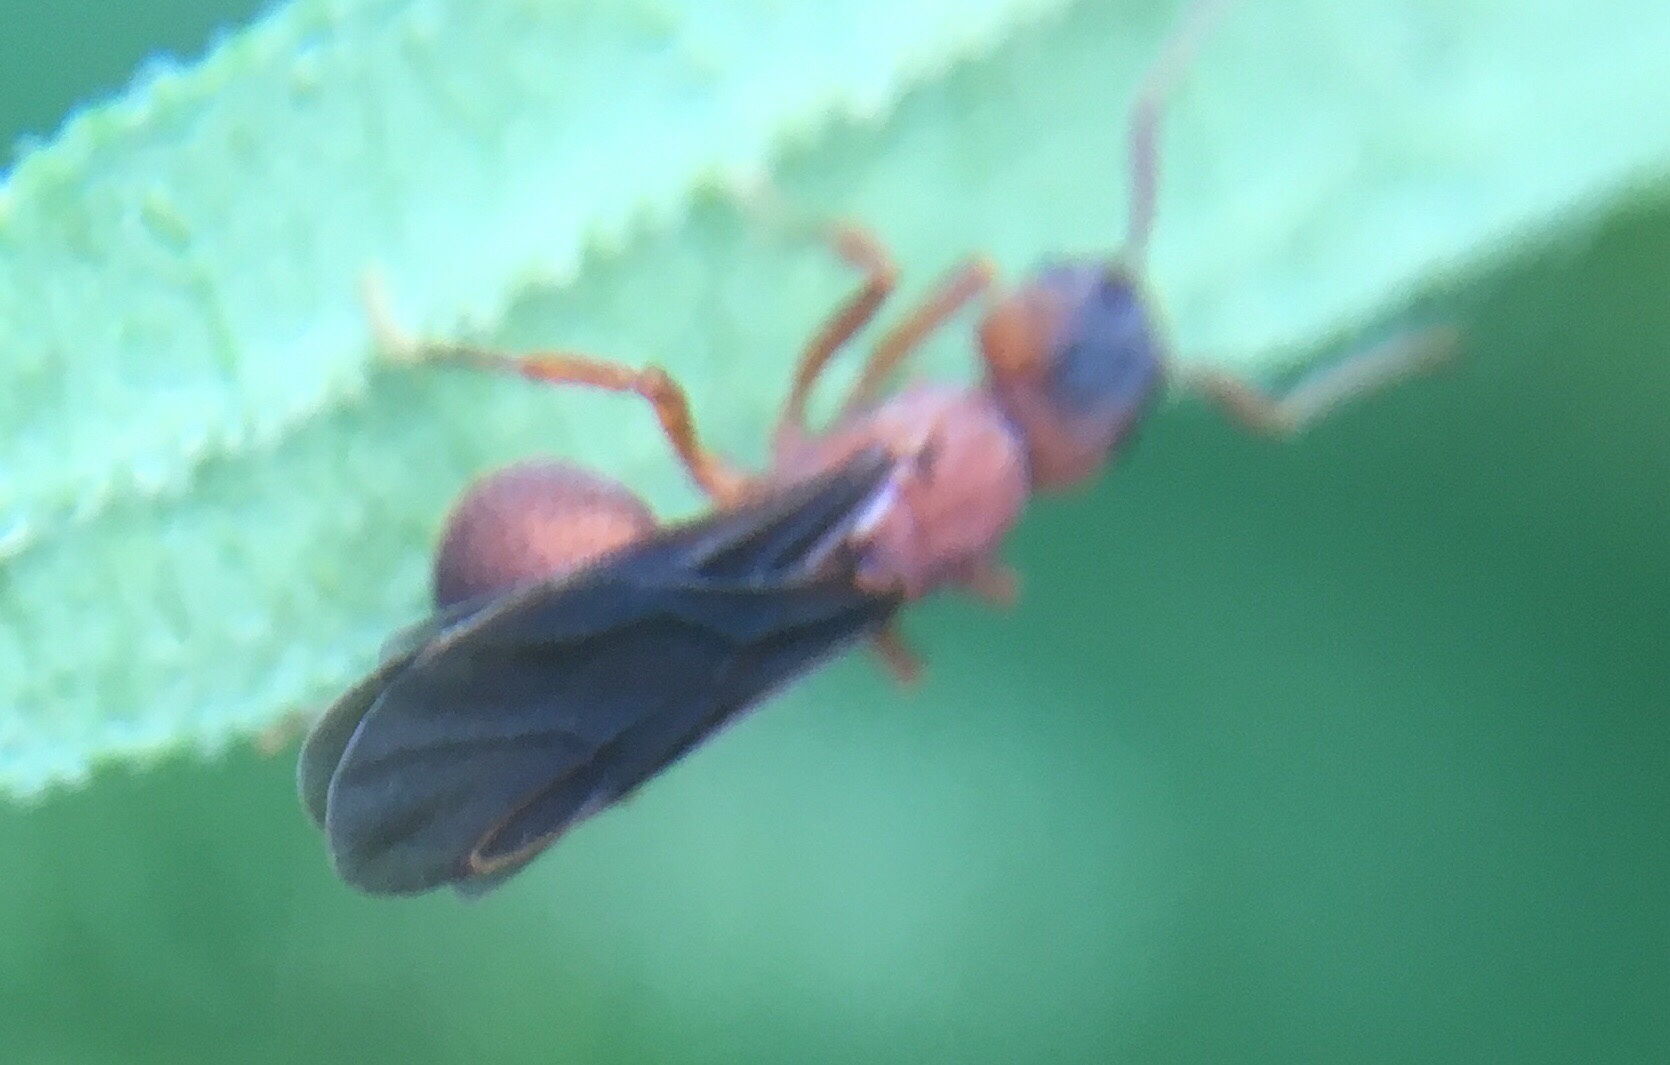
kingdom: Animalia
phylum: Arthropoda
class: Insecta
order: Hymenoptera
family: Formicidae
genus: Trachymyrmex
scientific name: Trachymyrmex septentrionalis
